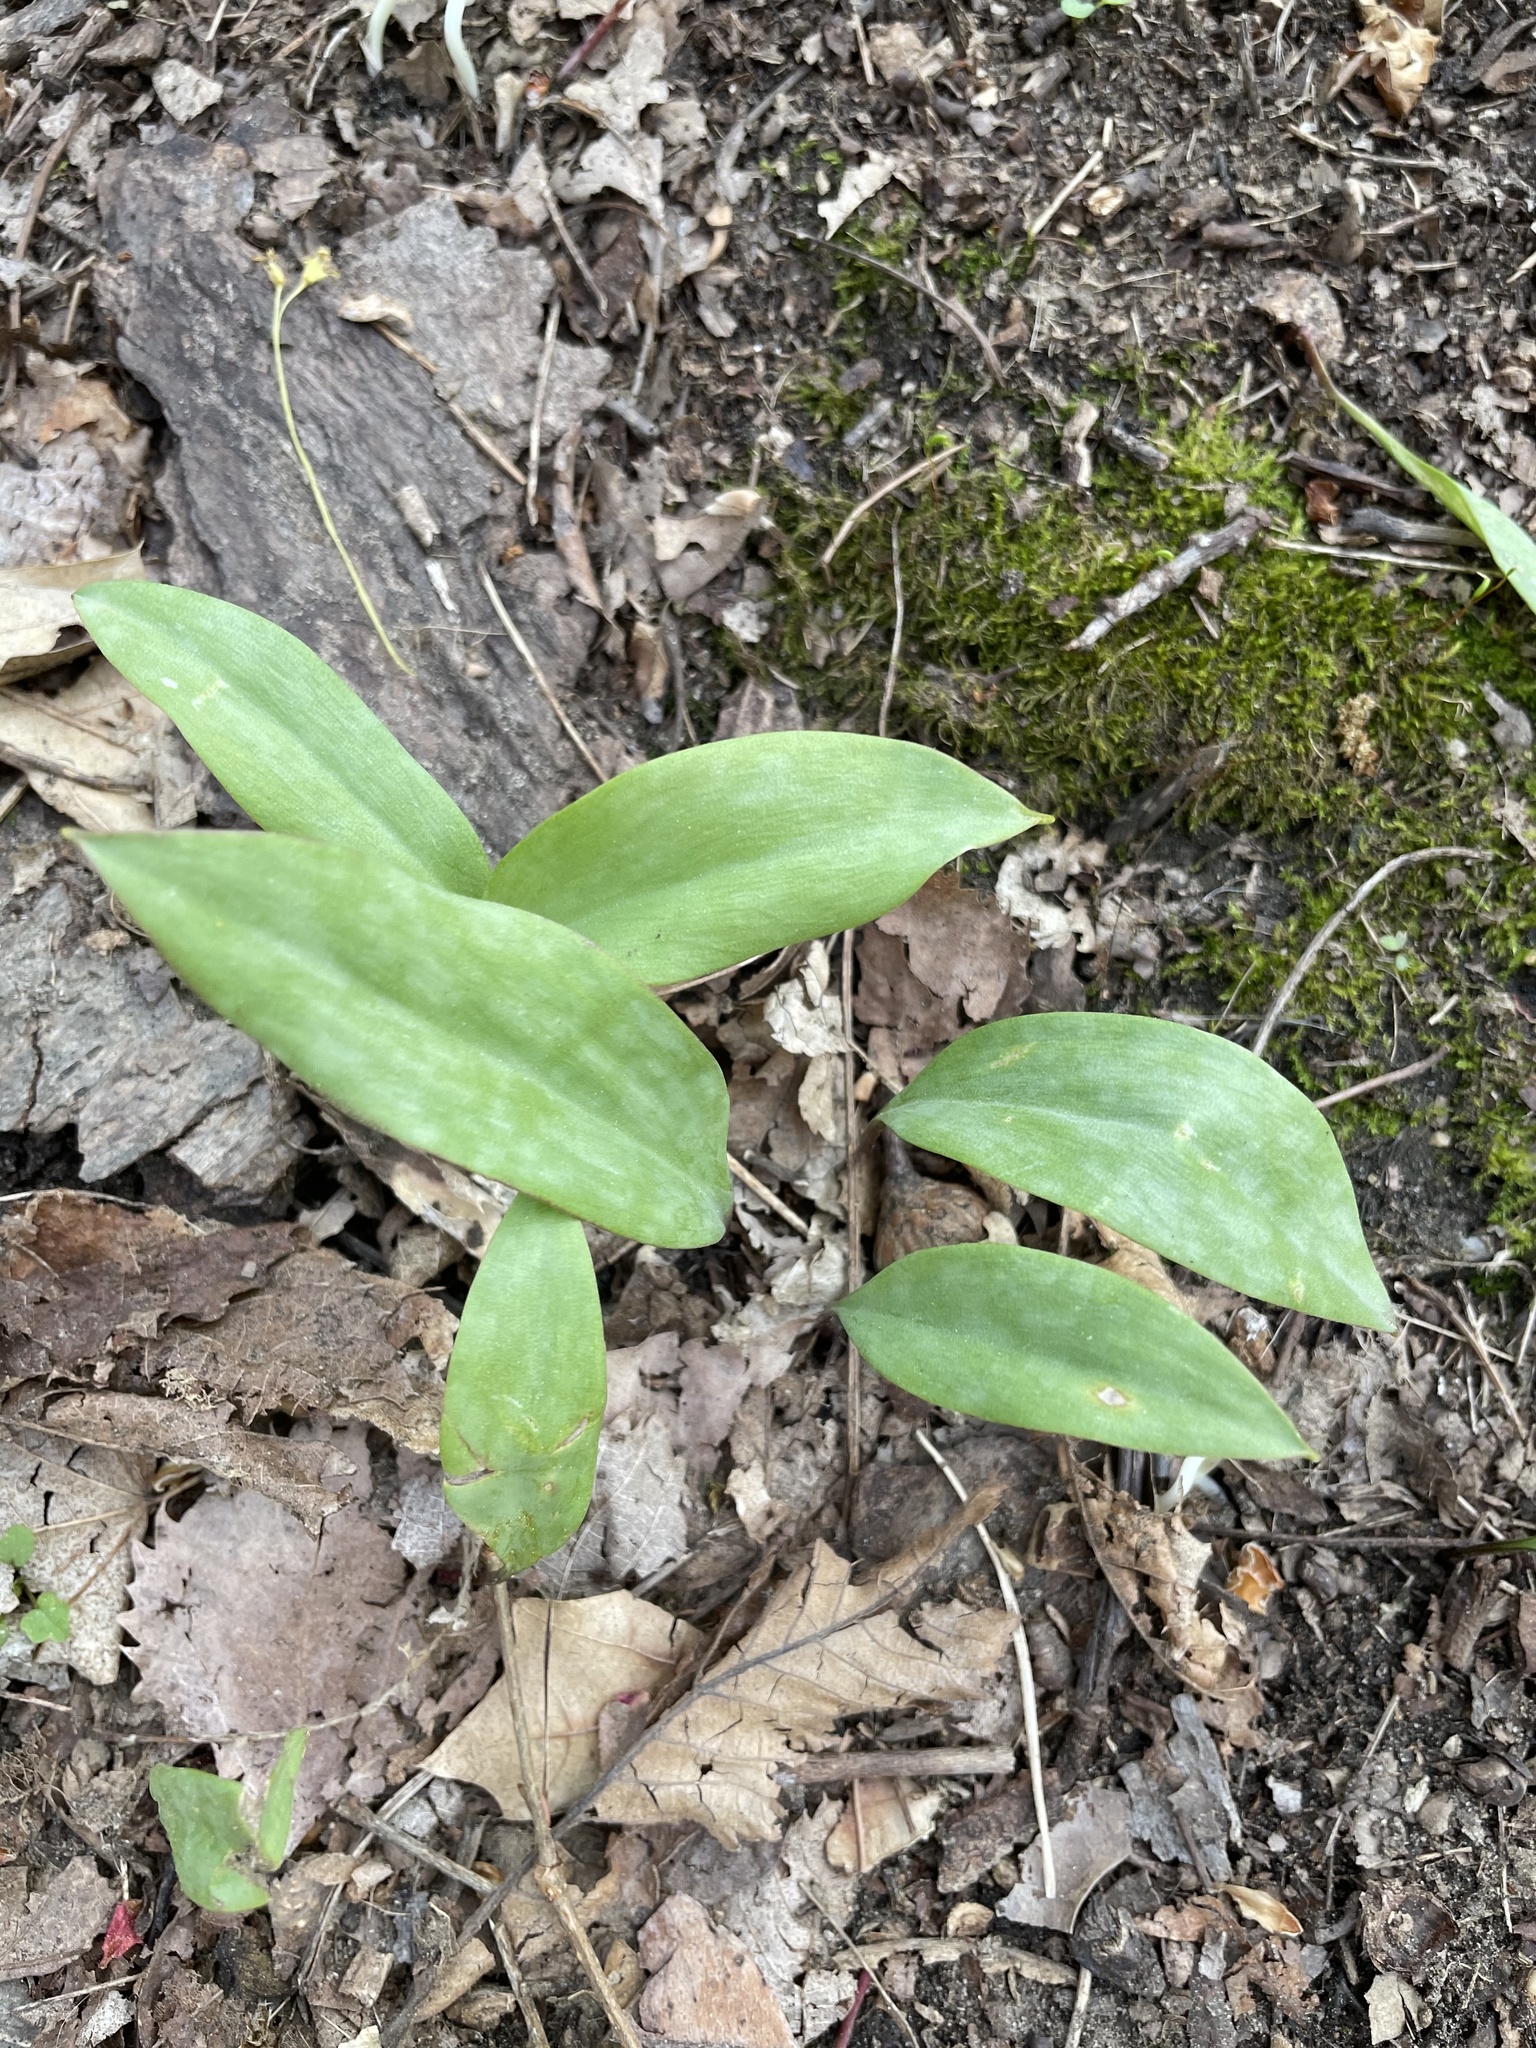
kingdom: Plantae
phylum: Tracheophyta
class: Liliopsida
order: Liliales
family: Liliaceae
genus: Erythronium
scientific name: Erythronium americanum
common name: Yellow adder's-tongue
